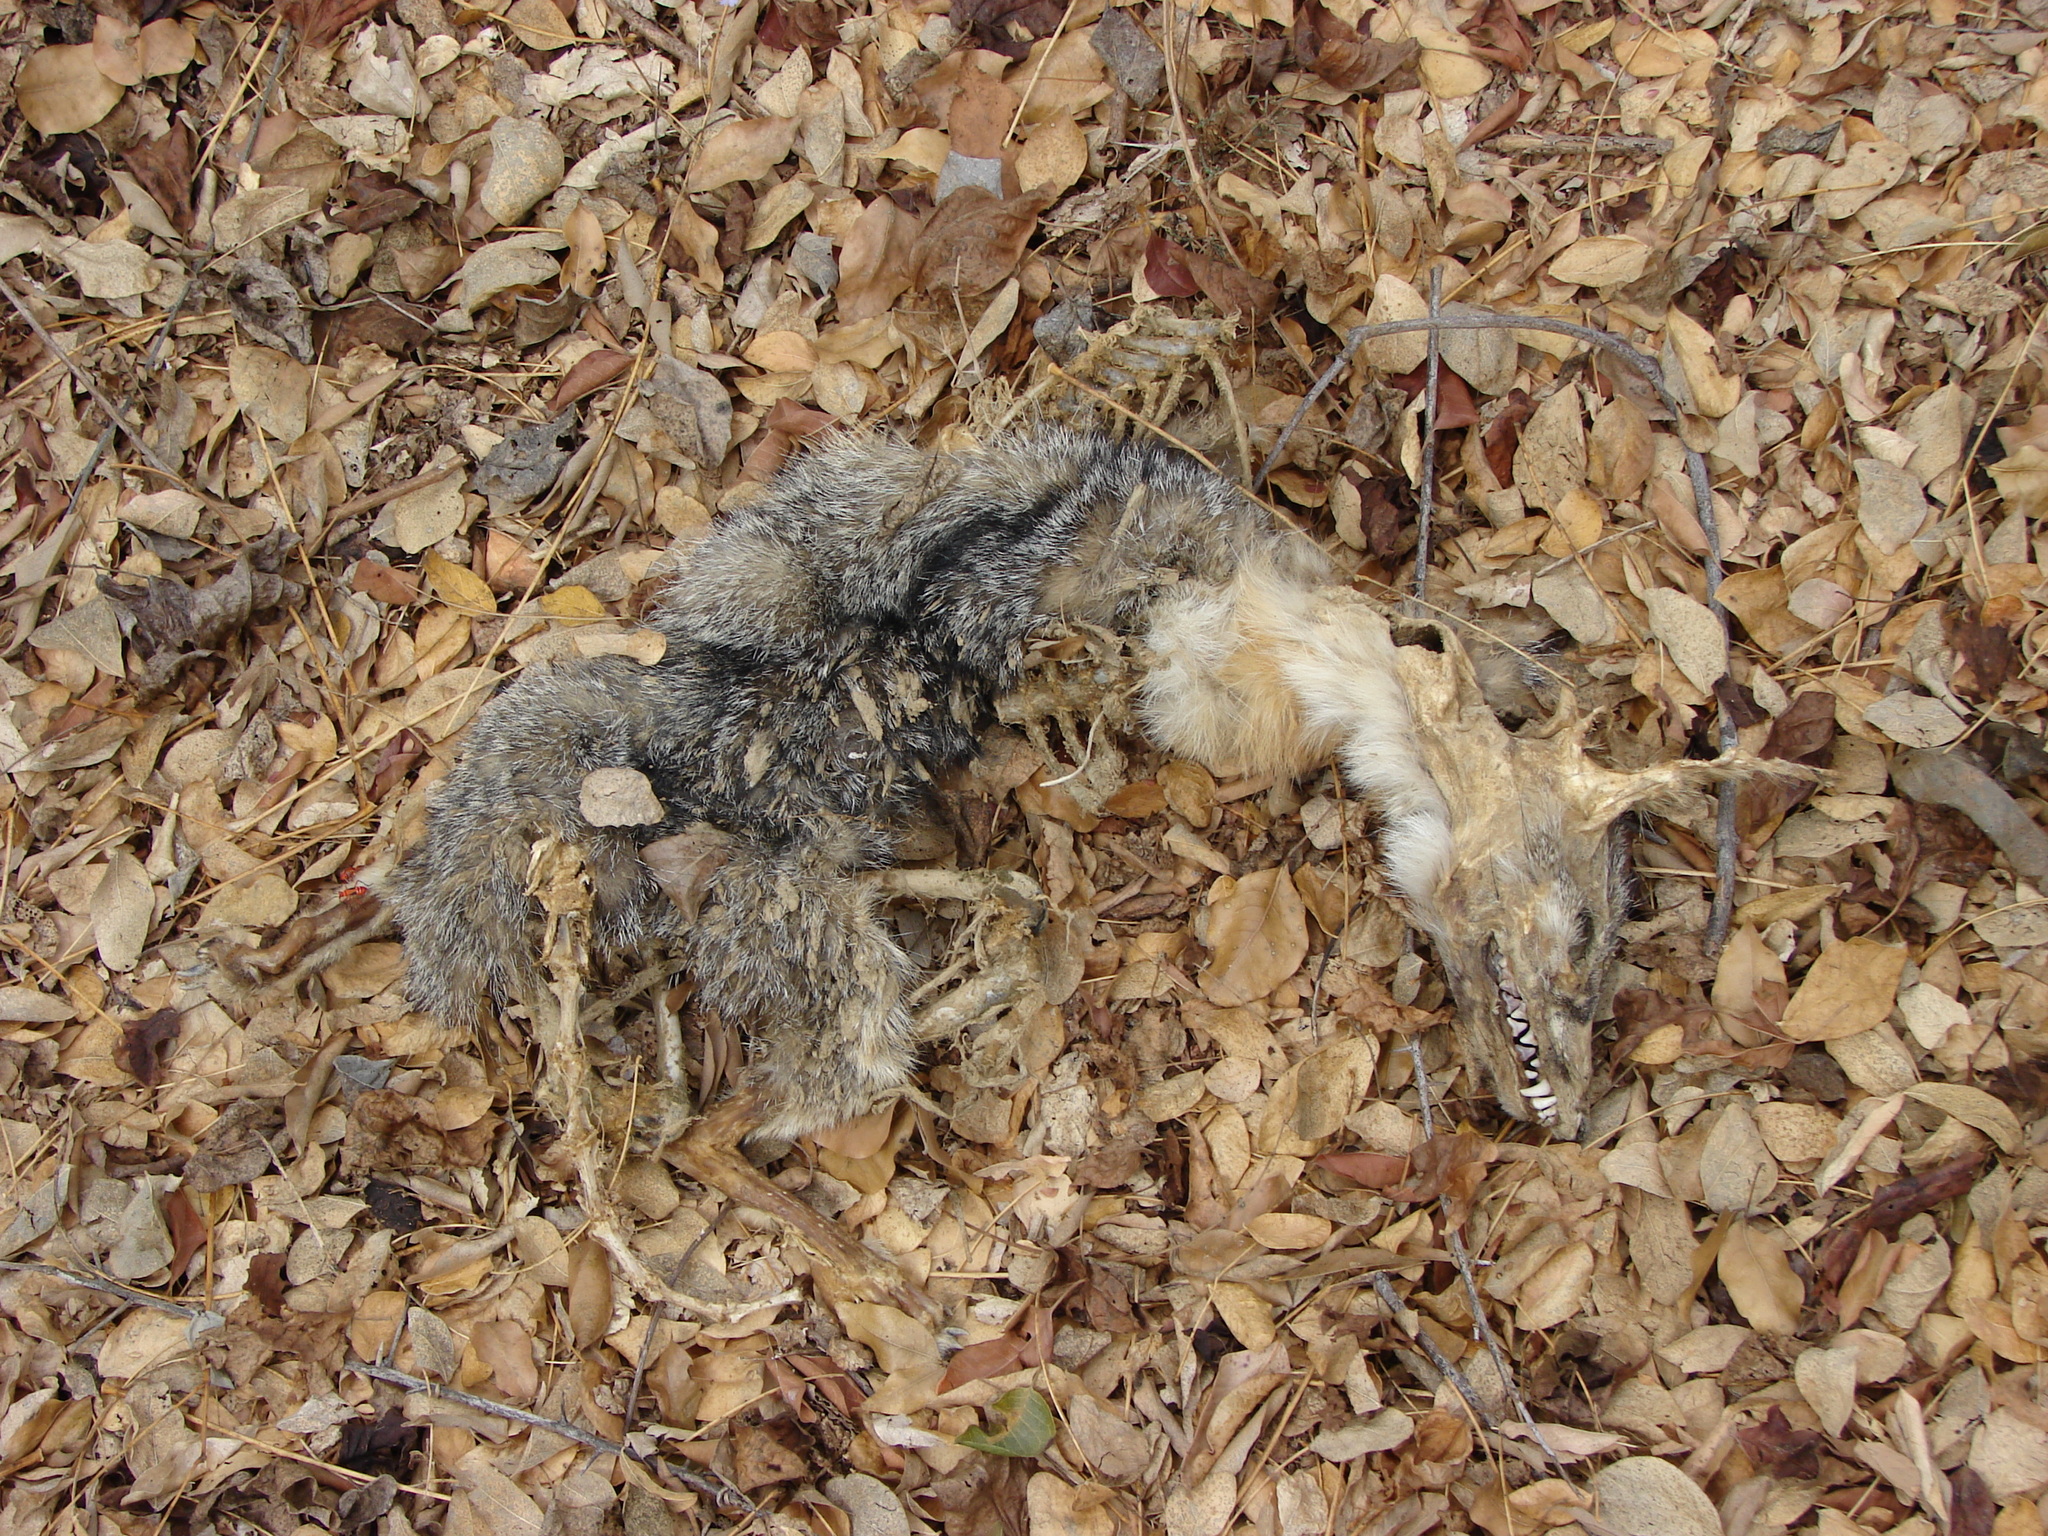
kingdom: Animalia
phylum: Chordata
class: Mammalia
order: Carnivora
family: Canidae
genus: Urocyon
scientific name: Urocyon cinereoargenteus
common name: Gray fox
